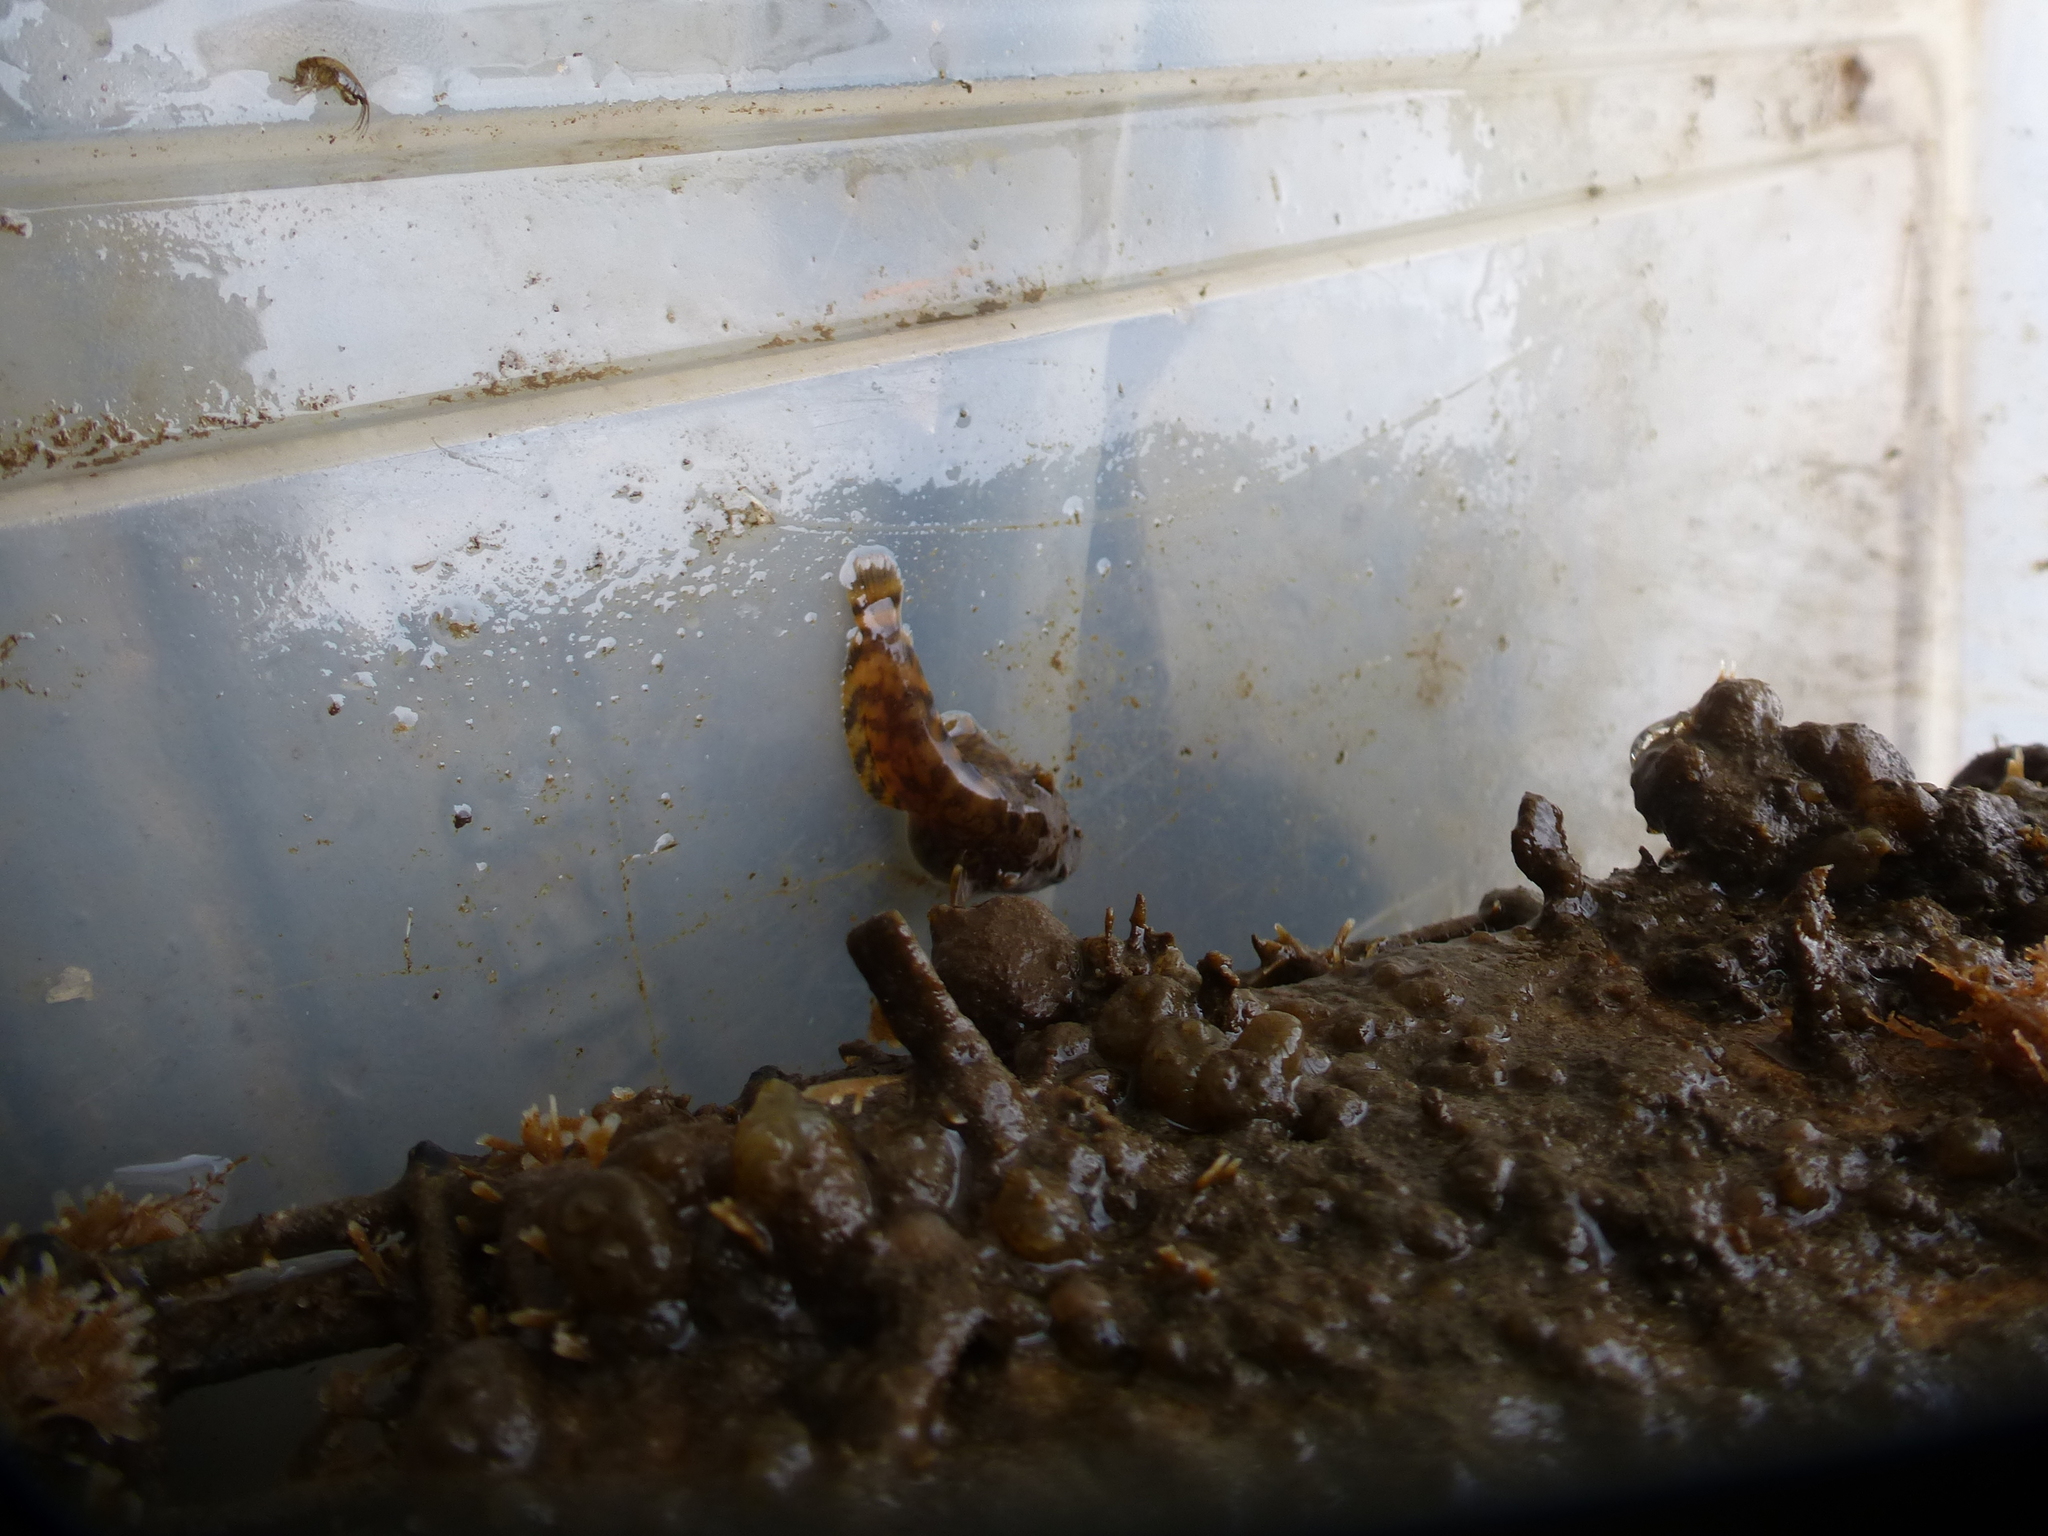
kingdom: Animalia
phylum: Chordata
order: Batrachoidiformes
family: Batrachoididae
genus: Opsanus
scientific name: Opsanus tau
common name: Oyster toadfish
